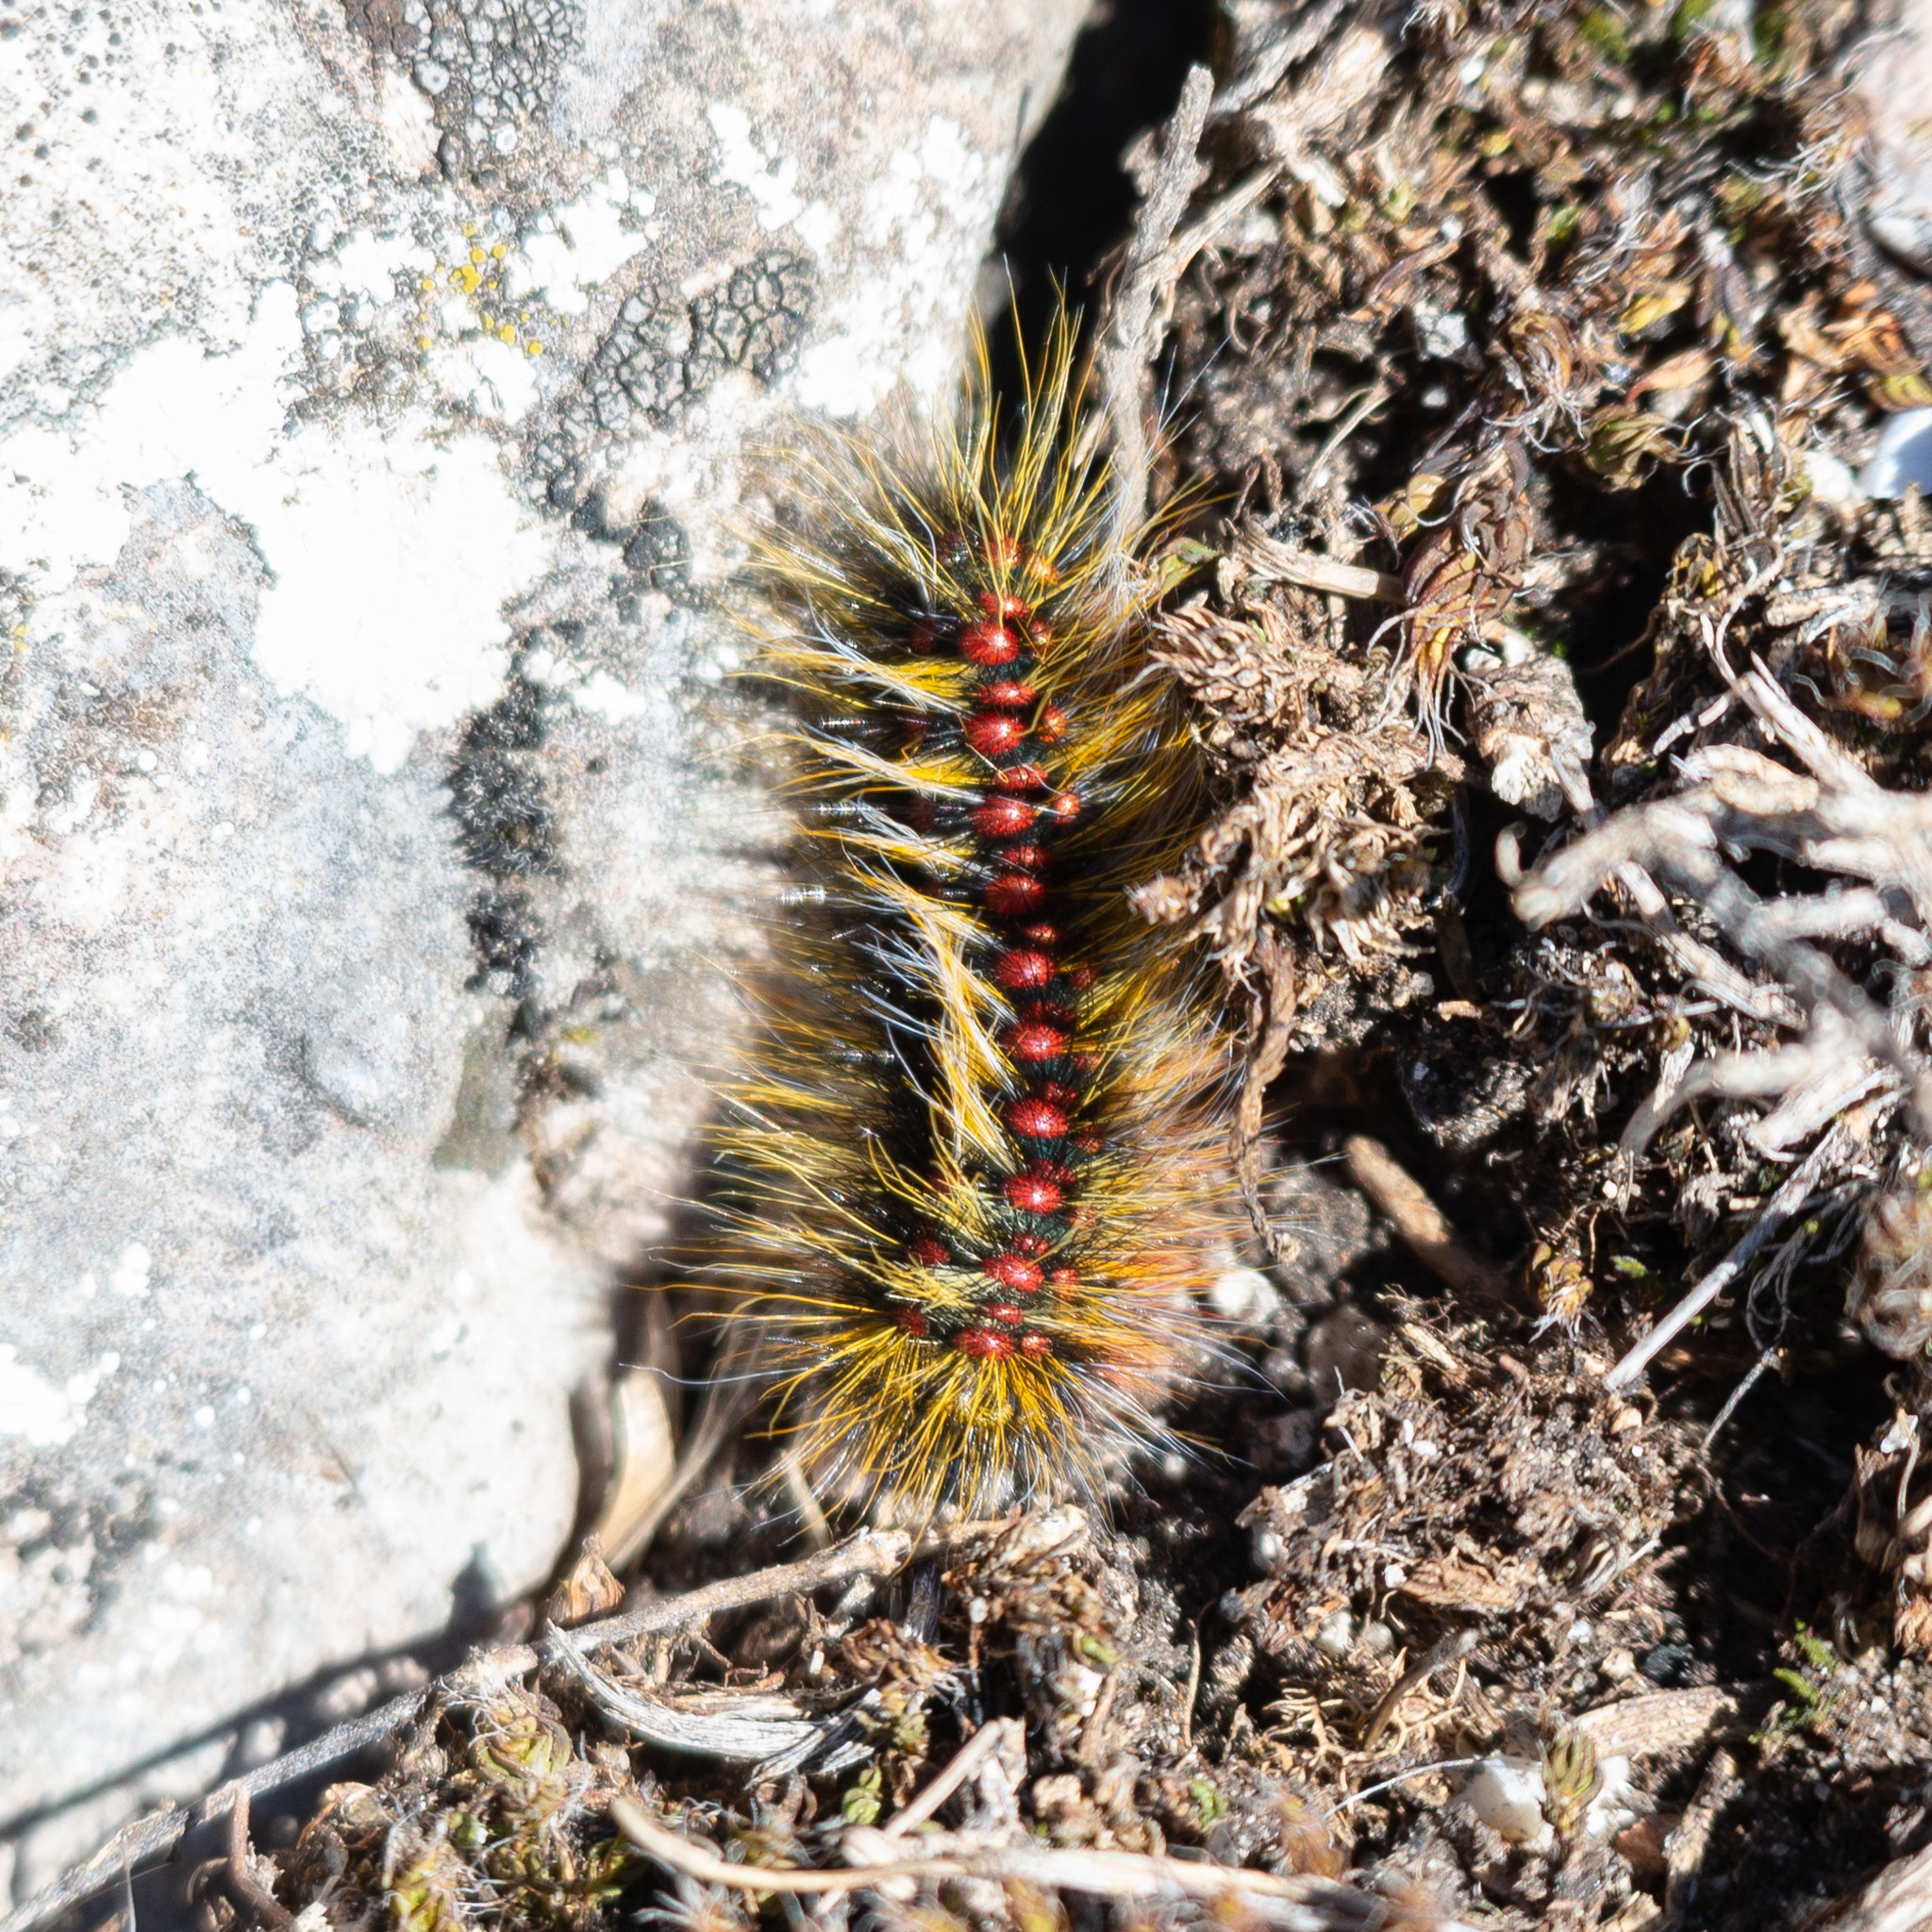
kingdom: Animalia
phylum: Arthropoda
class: Insecta
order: Lepidoptera
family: Lasiocampidae
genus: Chondrostega
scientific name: Chondrostega vandalicia
